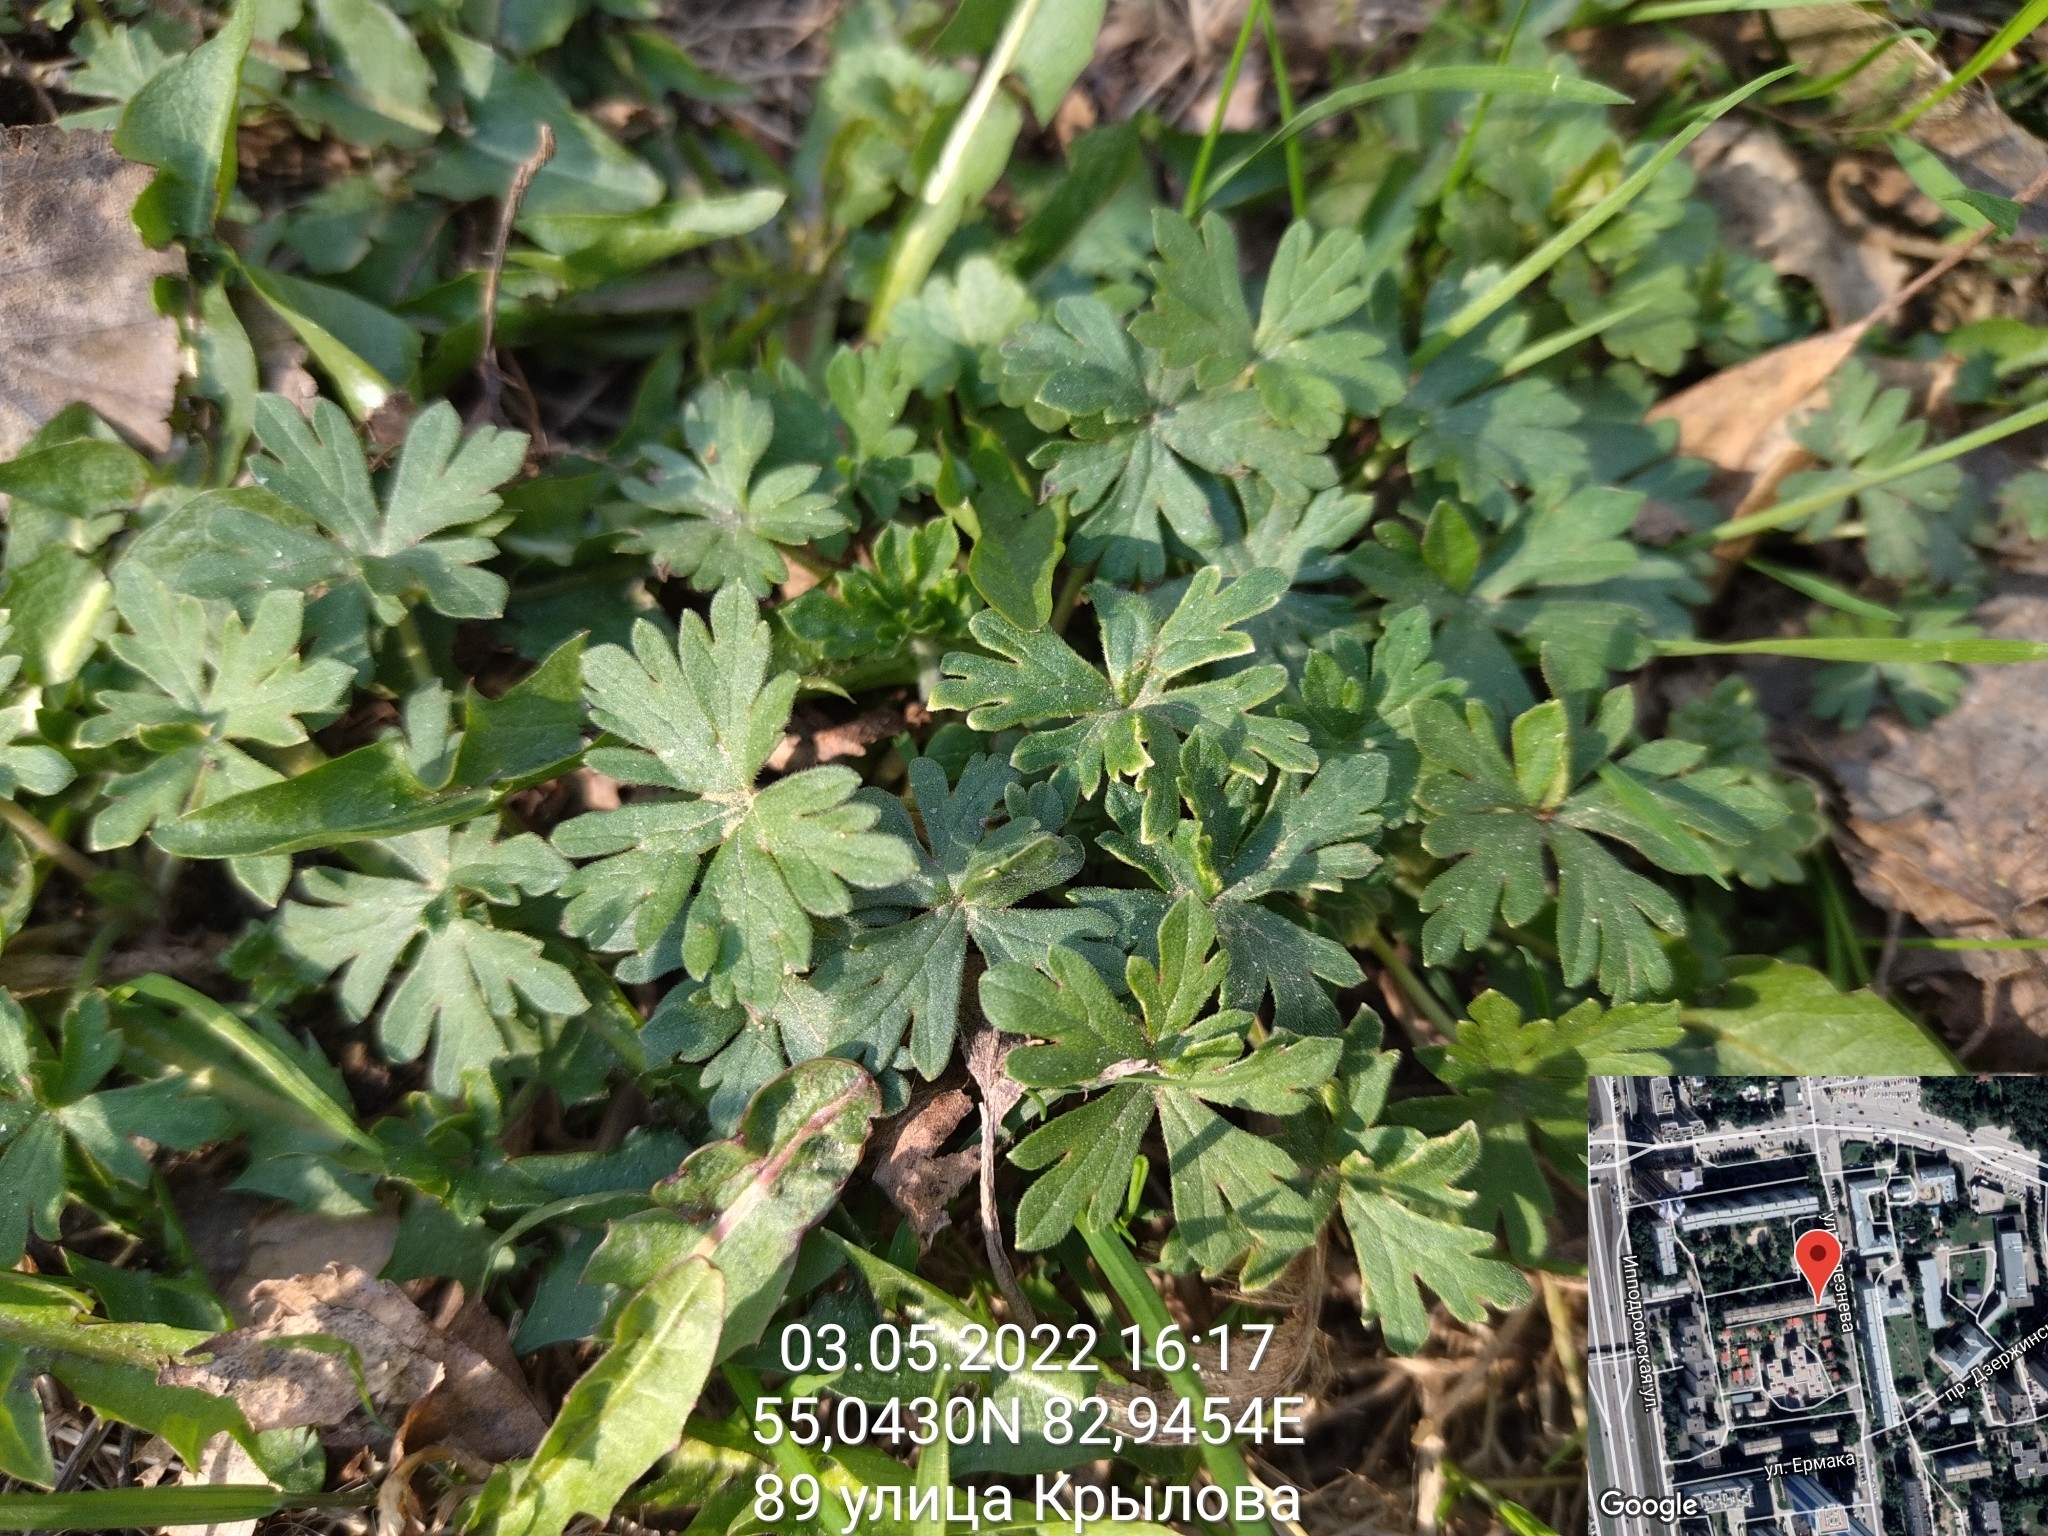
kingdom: Plantae
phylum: Tracheophyta
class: Magnoliopsida
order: Geraniales
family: Geraniaceae
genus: Geranium
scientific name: Geranium sibiricum
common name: Siberian crane's-bill
